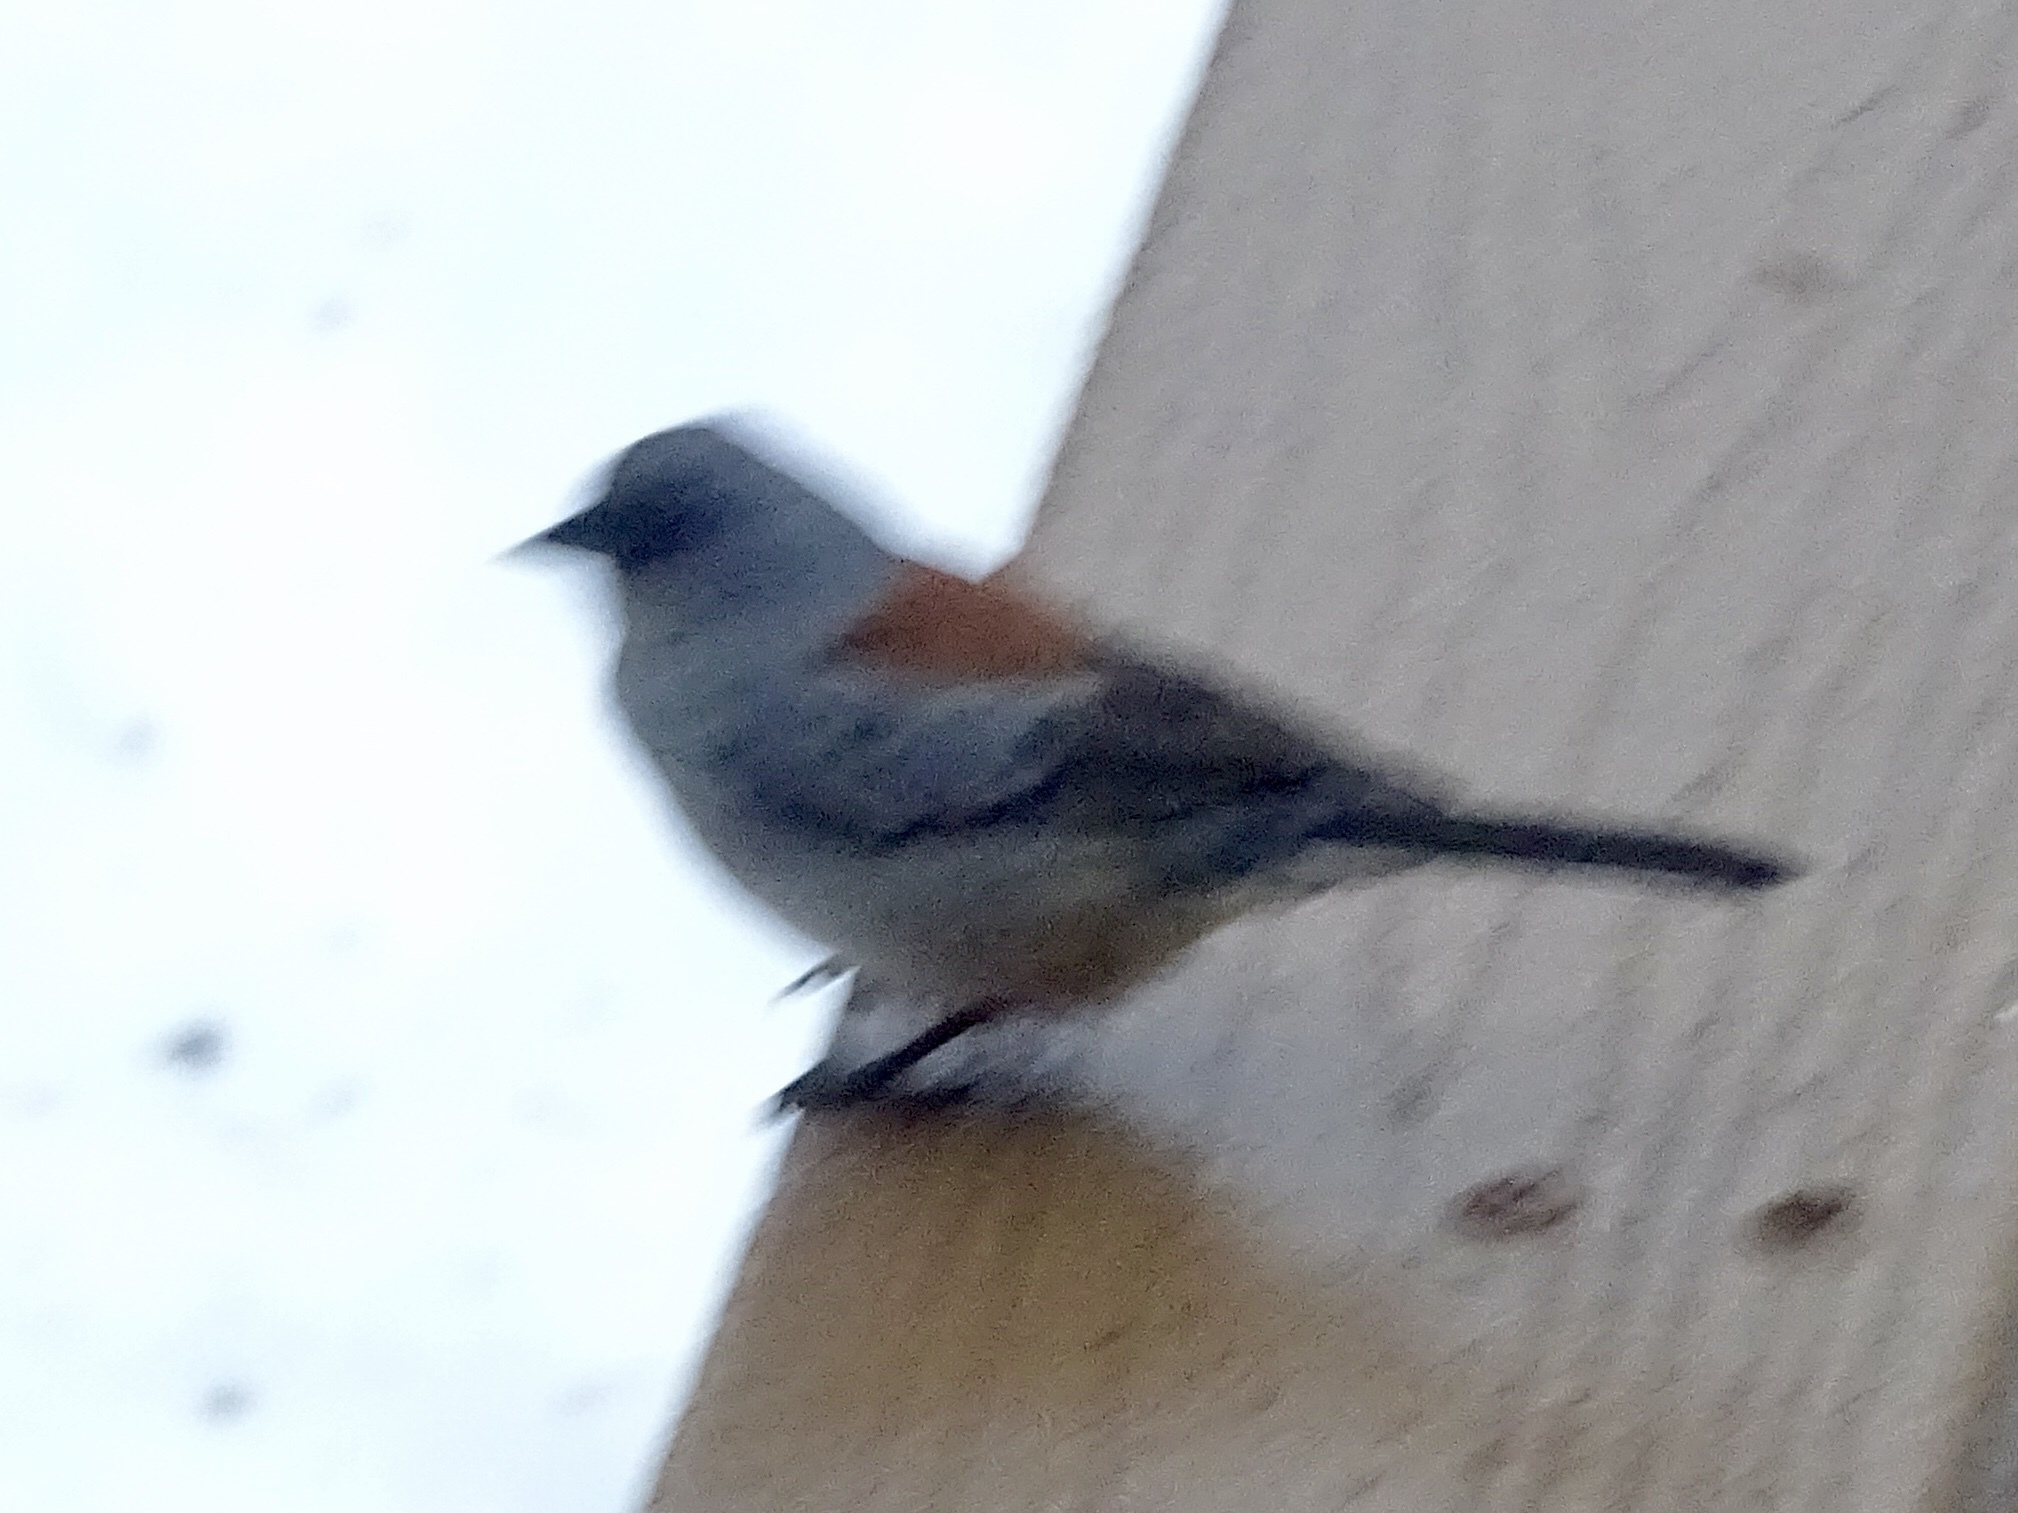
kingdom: Animalia
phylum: Chordata
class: Aves
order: Passeriformes
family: Passerellidae
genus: Junco
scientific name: Junco
